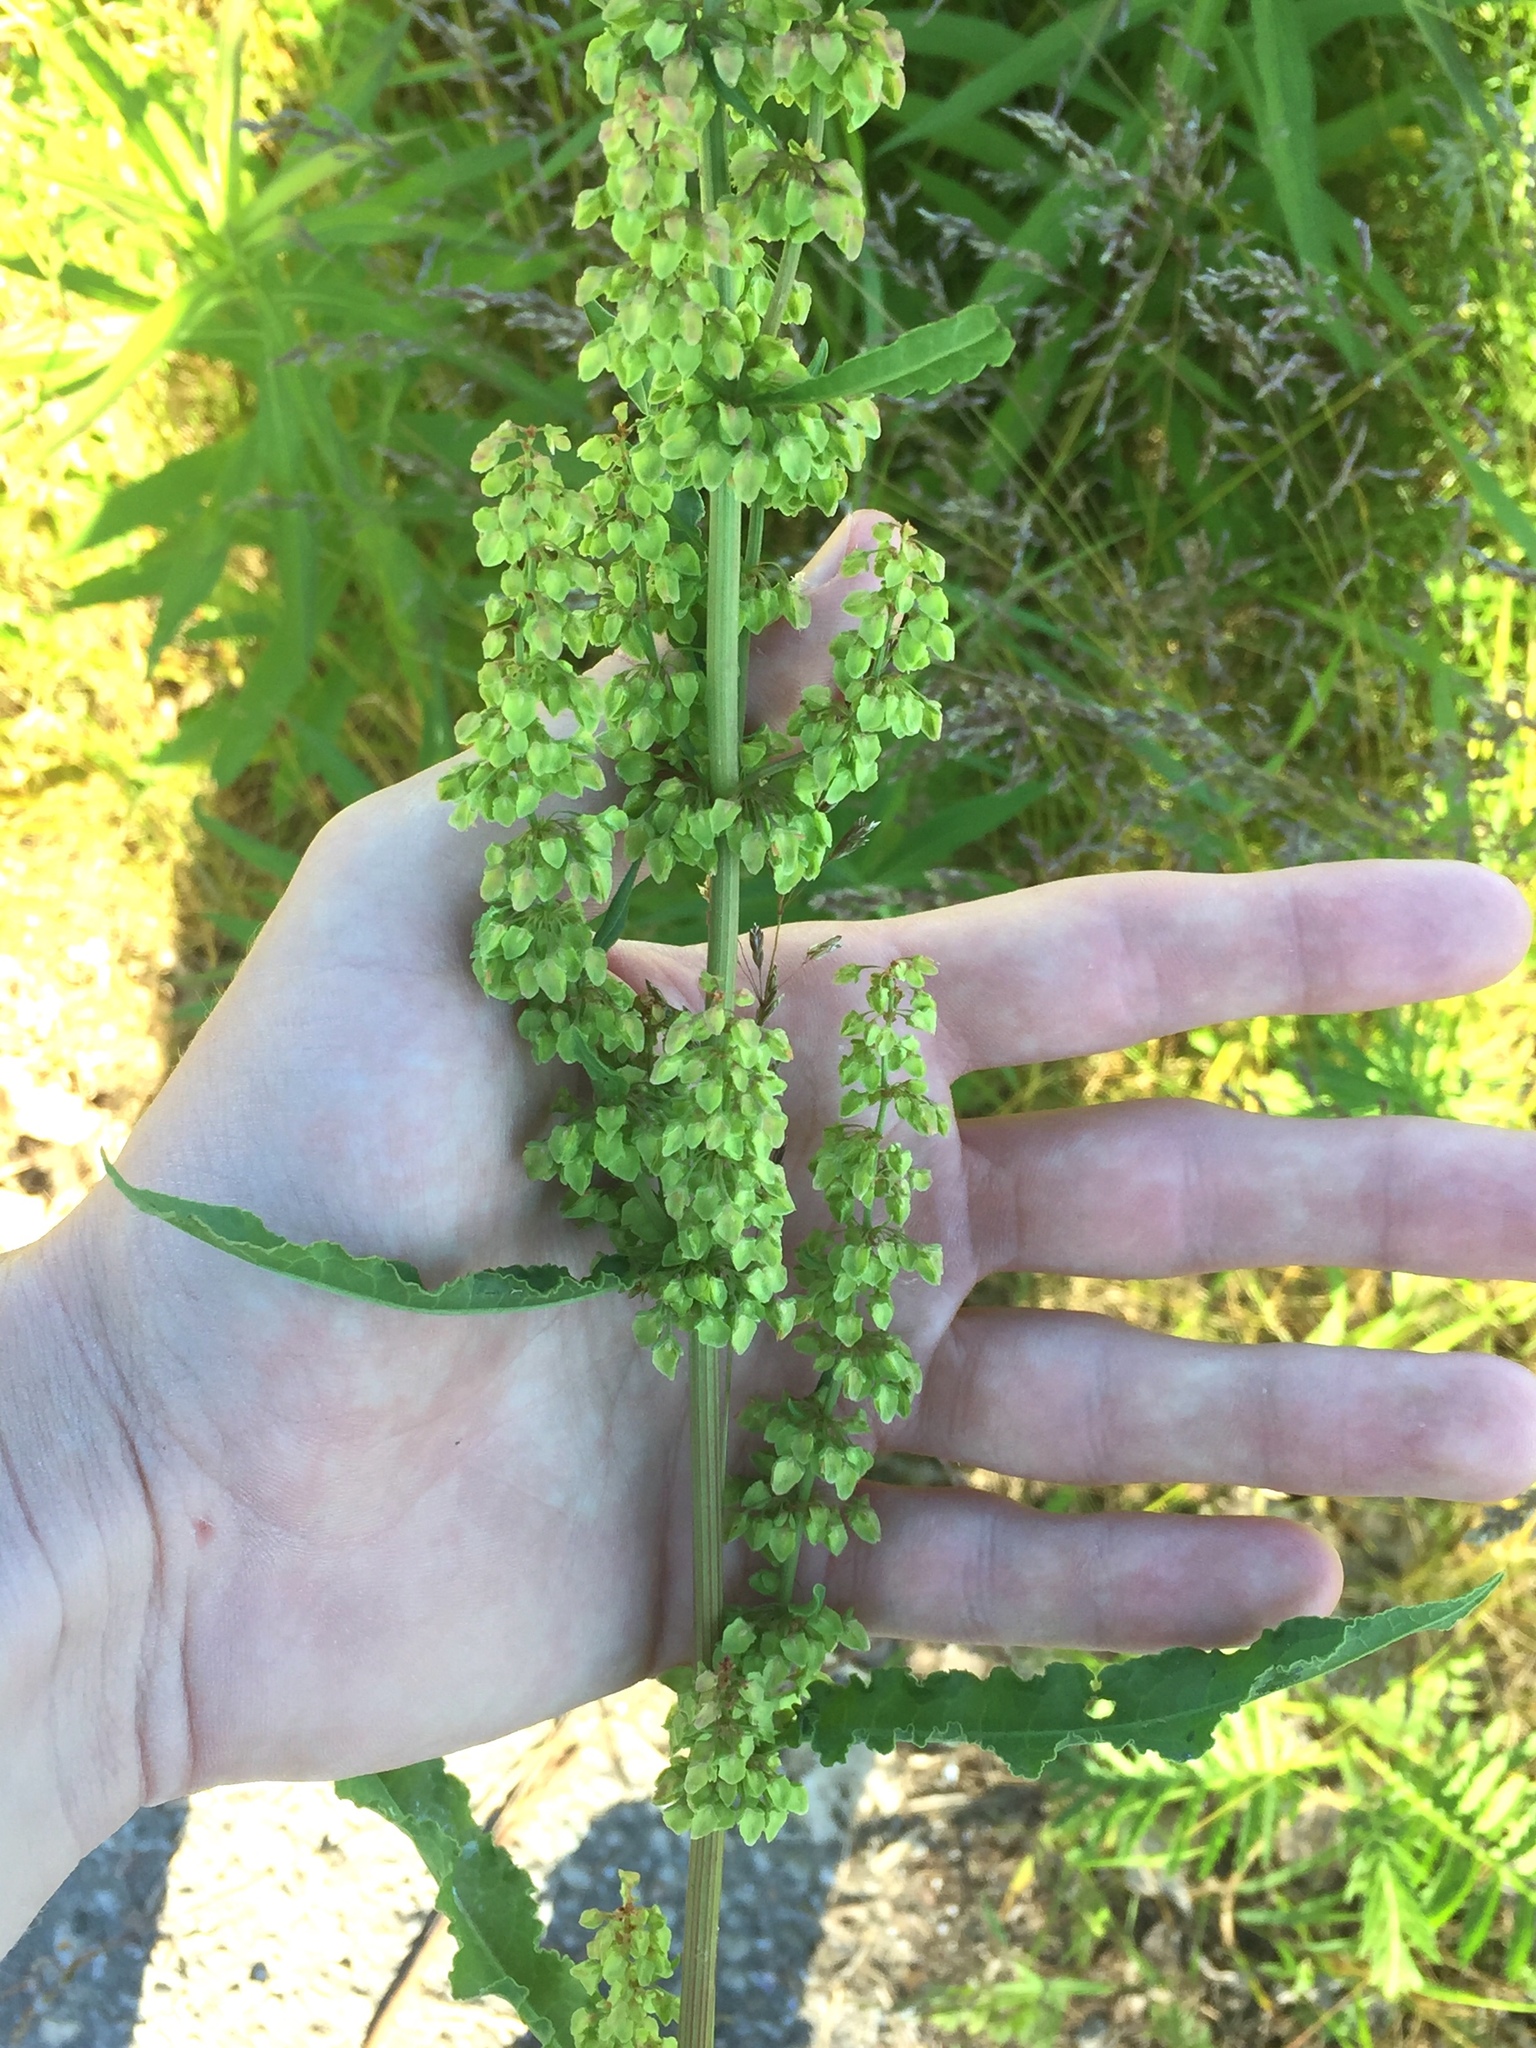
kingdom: Plantae
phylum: Tracheophyta
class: Magnoliopsida
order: Caryophyllales
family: Polygonaceae
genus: Rumex
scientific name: Rumex crispus
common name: Curled dock
